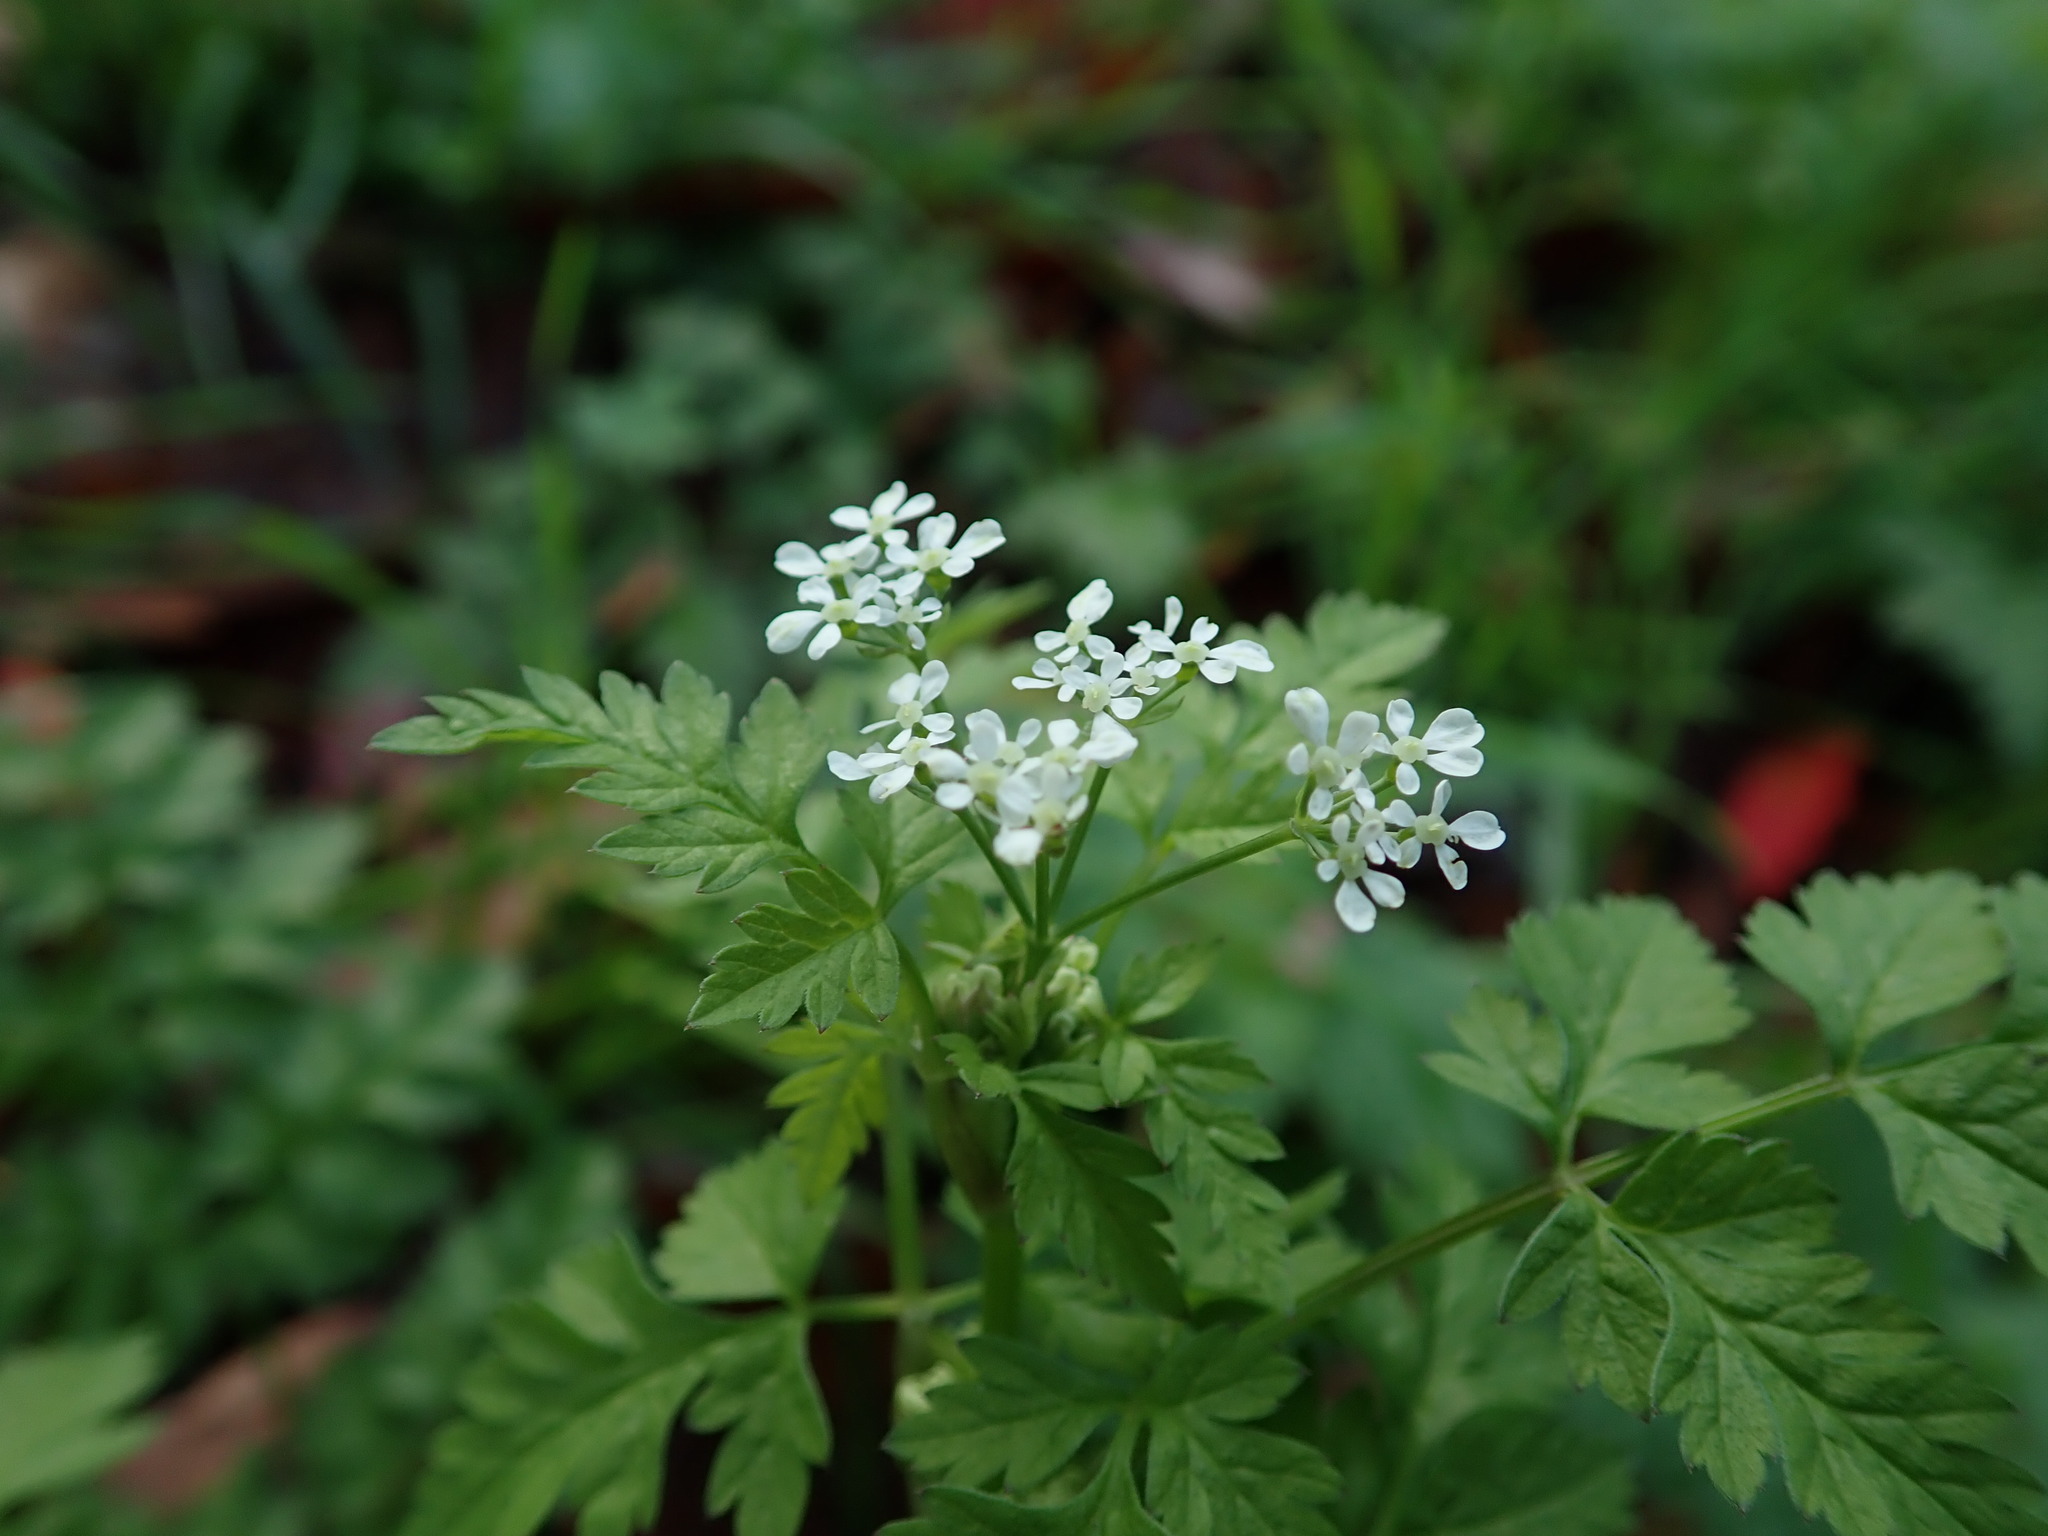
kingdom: Plantae
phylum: Tracheophyta
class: Magnoliopsida
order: Apiales
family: Apiaceae
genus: Anthriscus
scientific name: Anthriscus sylvestris
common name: Cow parsley
